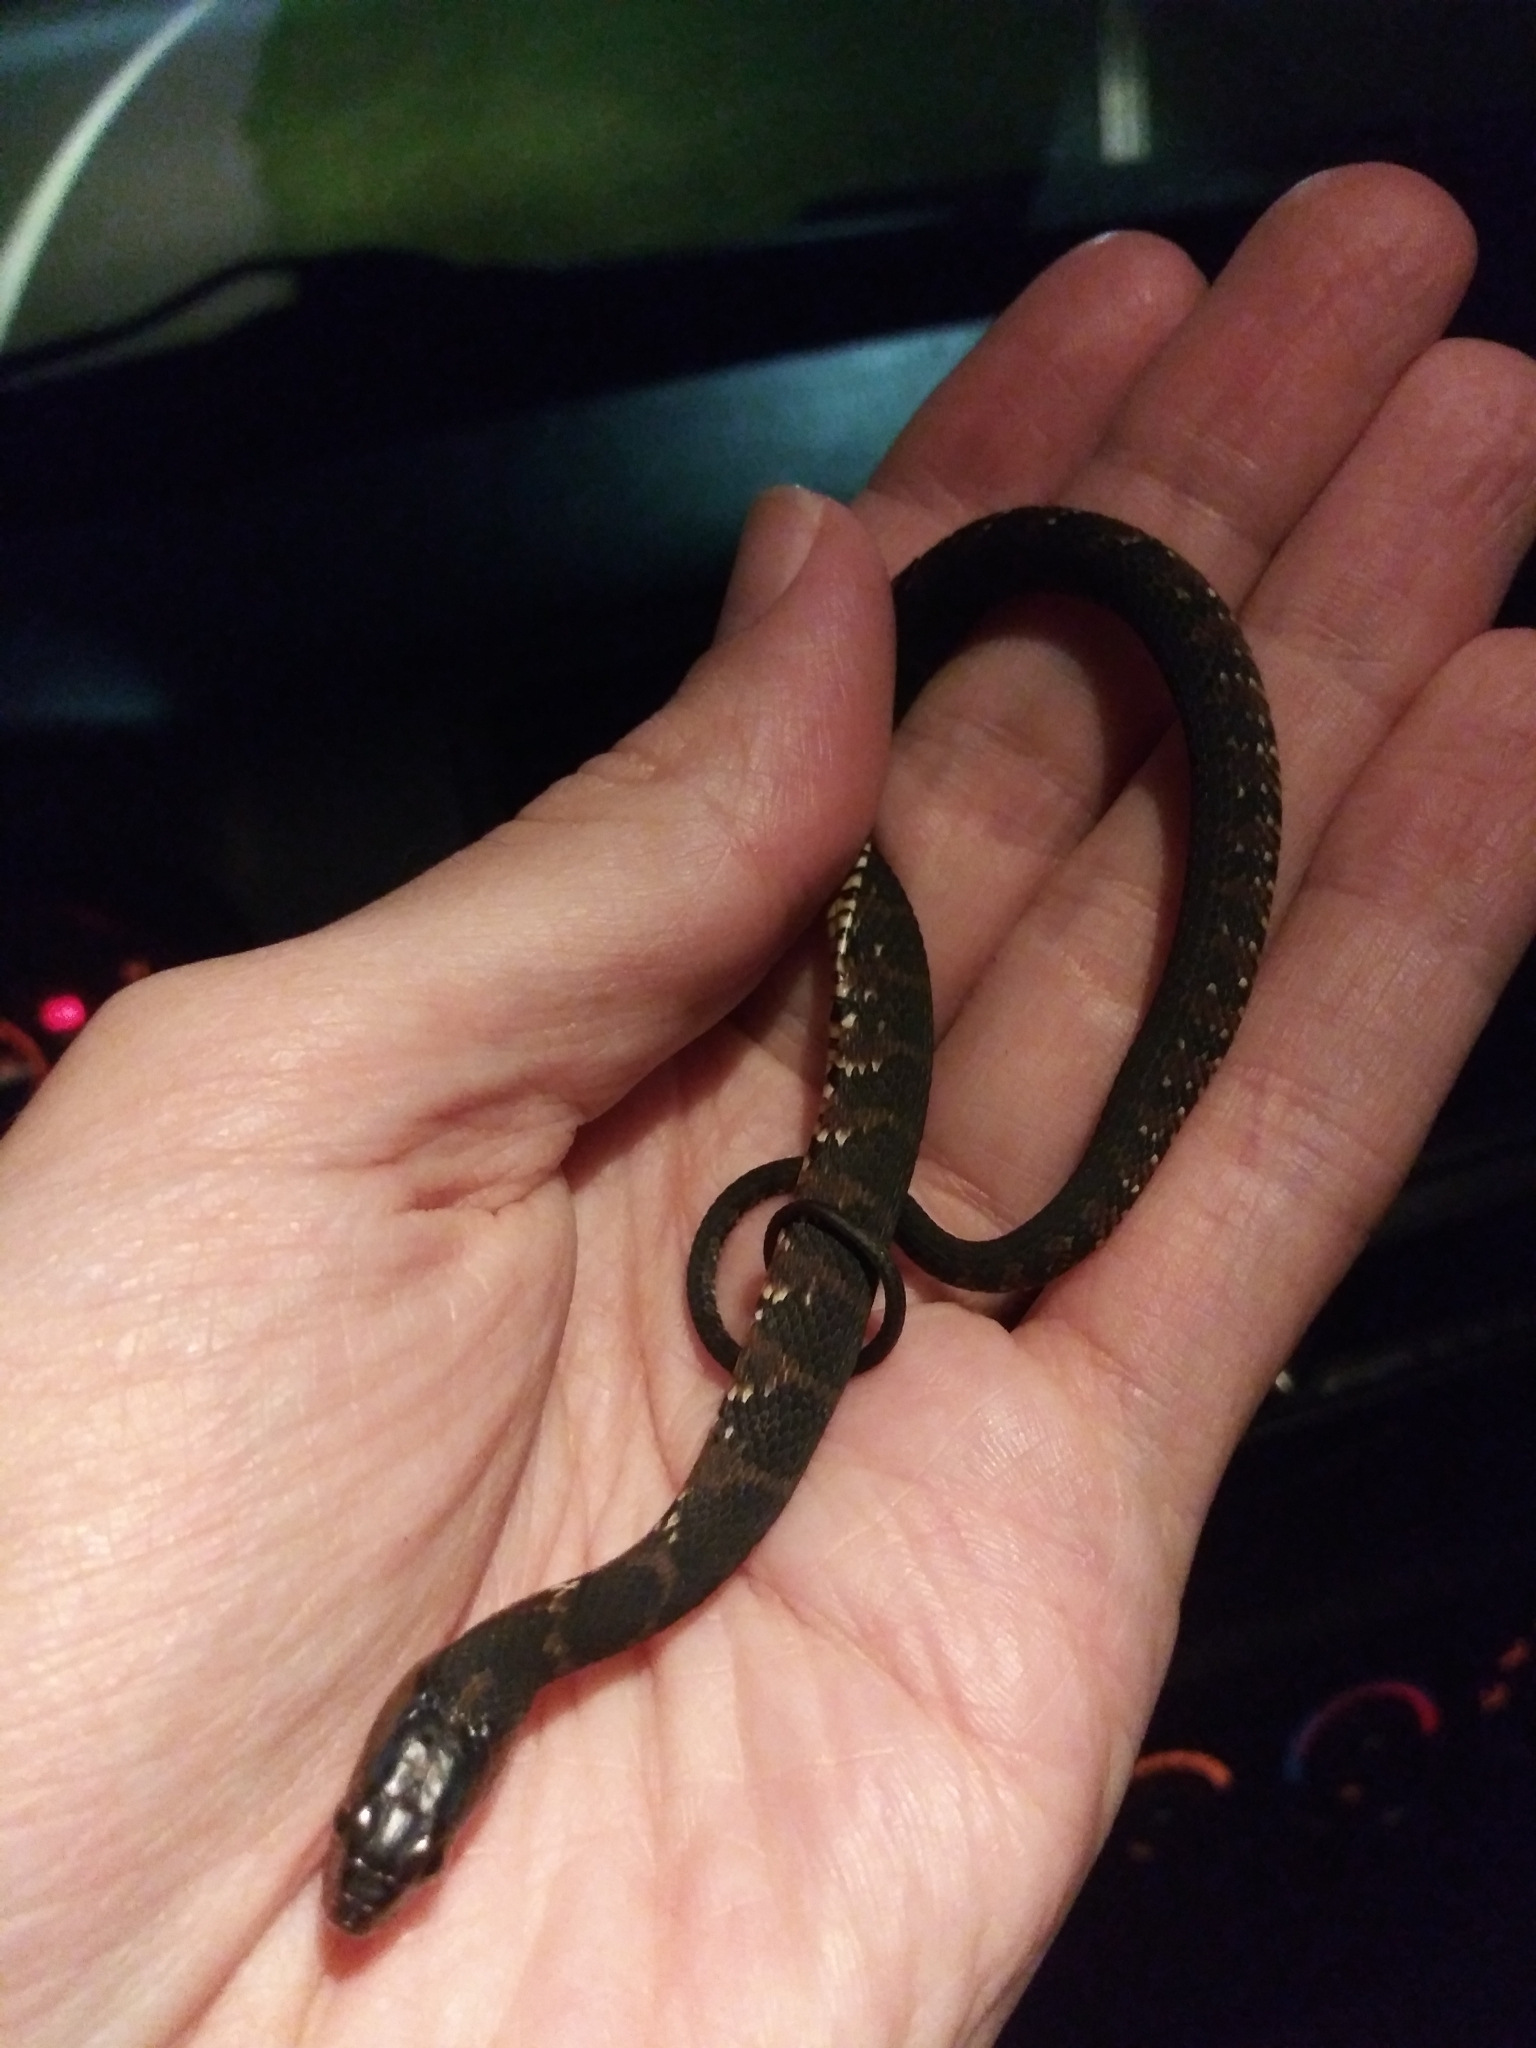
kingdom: Animalia
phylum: Chordata
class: Squamata
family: Colubridae
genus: Nerodia
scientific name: Nerodia fasciata
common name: Southern water snake
